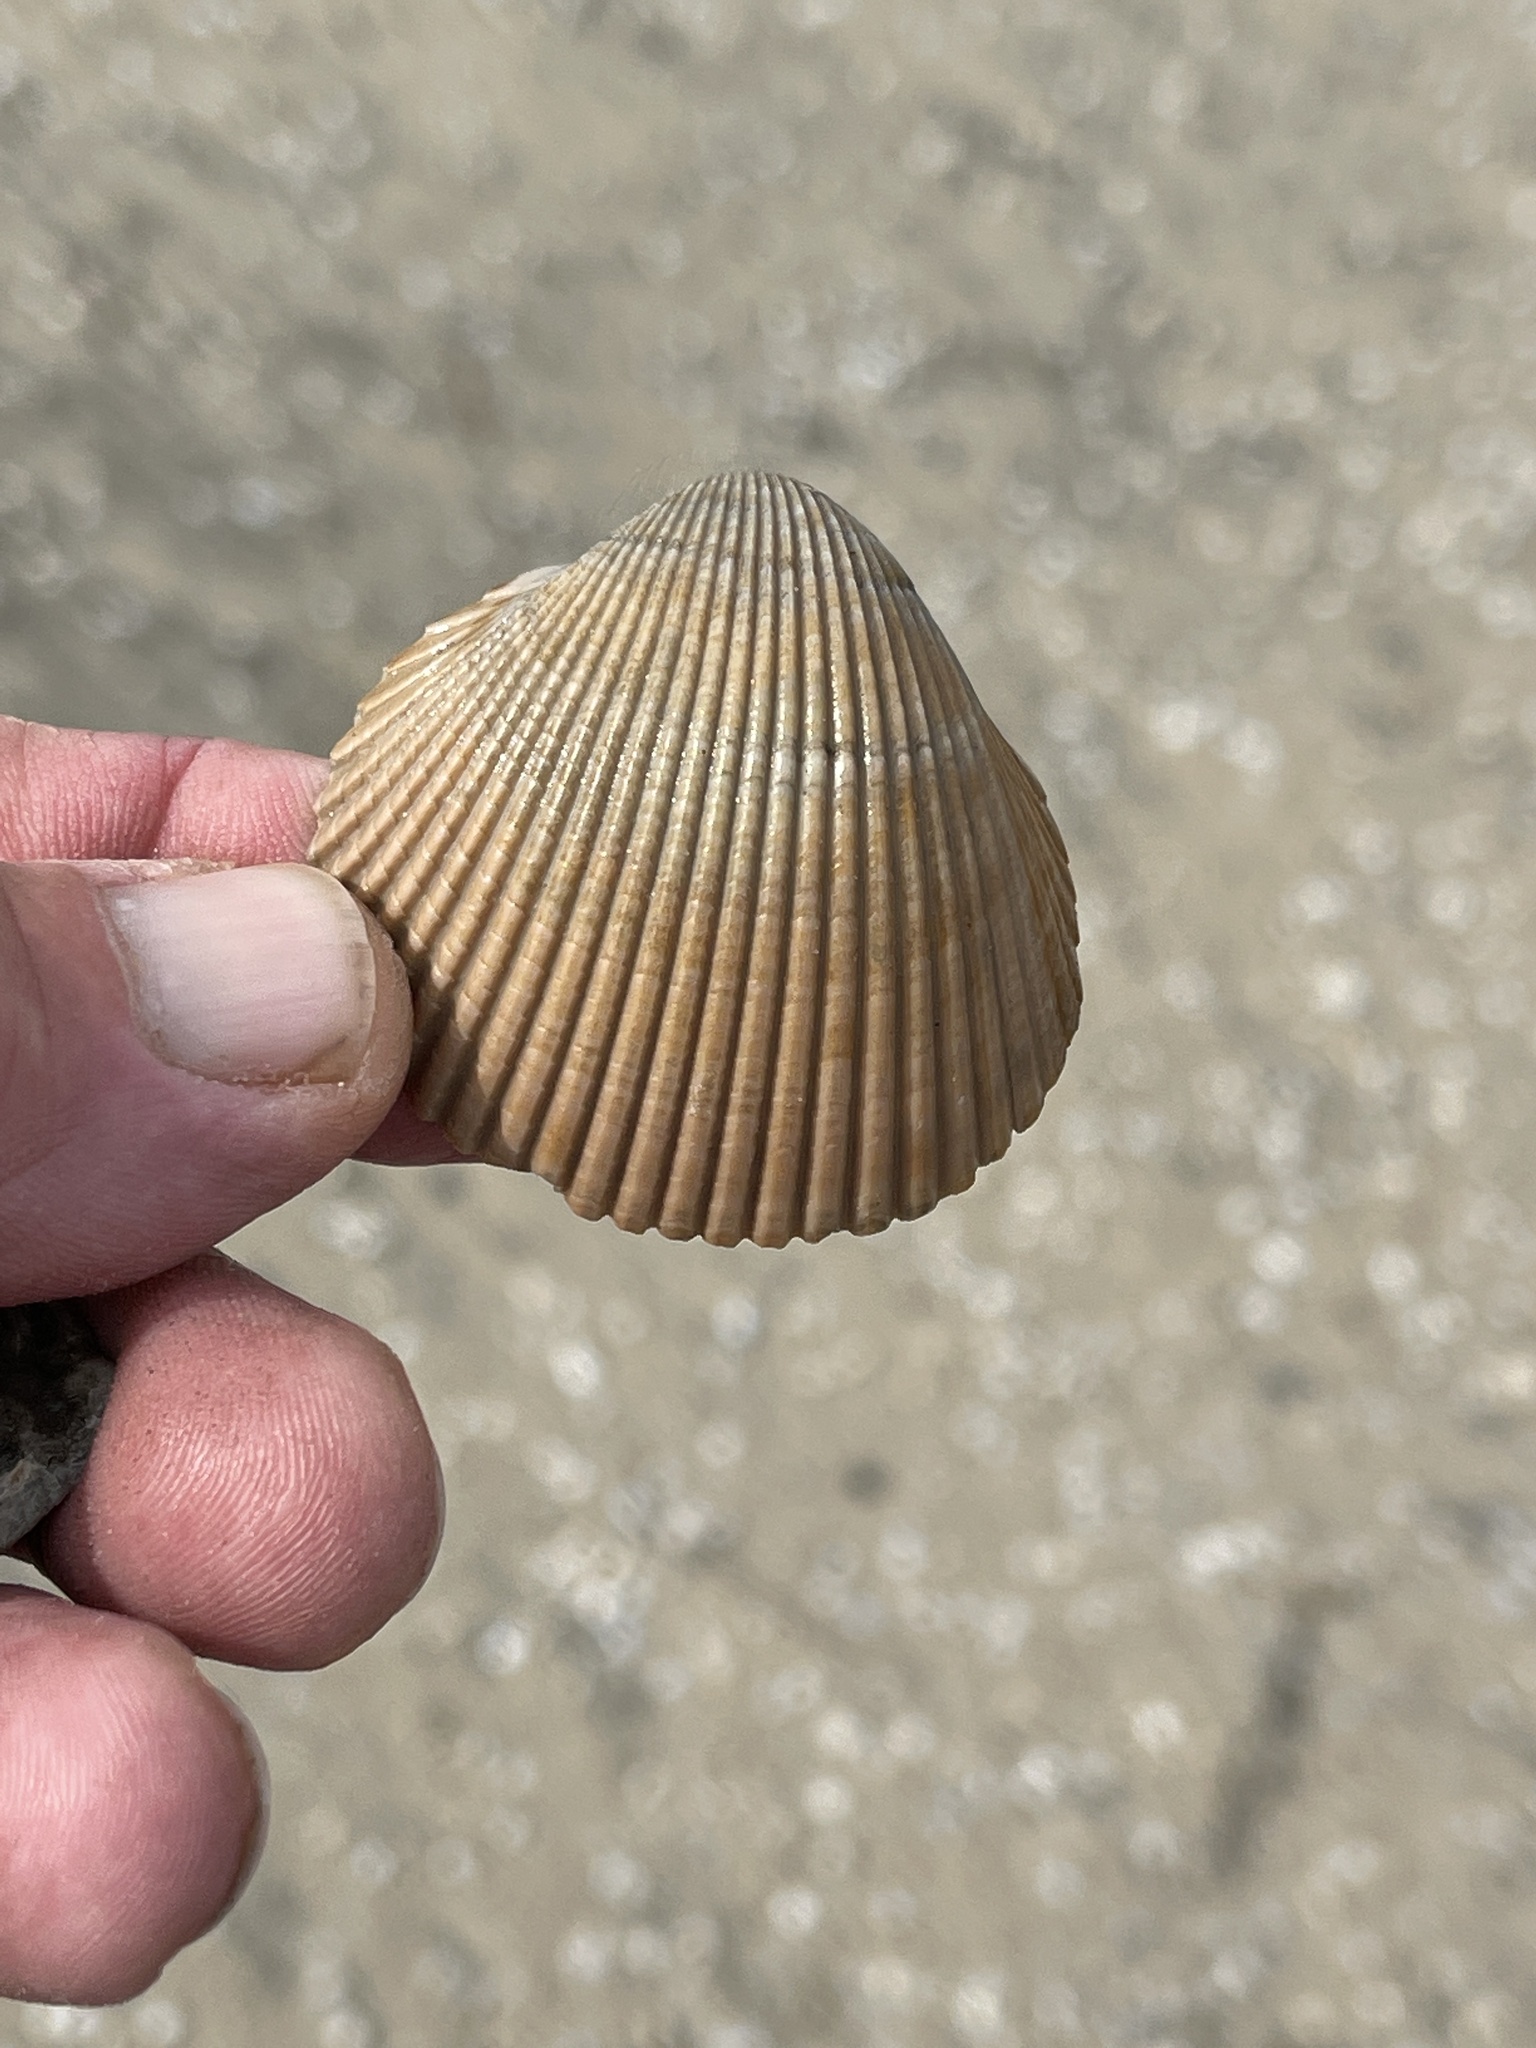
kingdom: Animalia
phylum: Mollusca
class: Bivalvia
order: Cardiida
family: Cardiidae
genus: Dinocardium
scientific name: Dinocardium robustum
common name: Atlantic giant cockle
